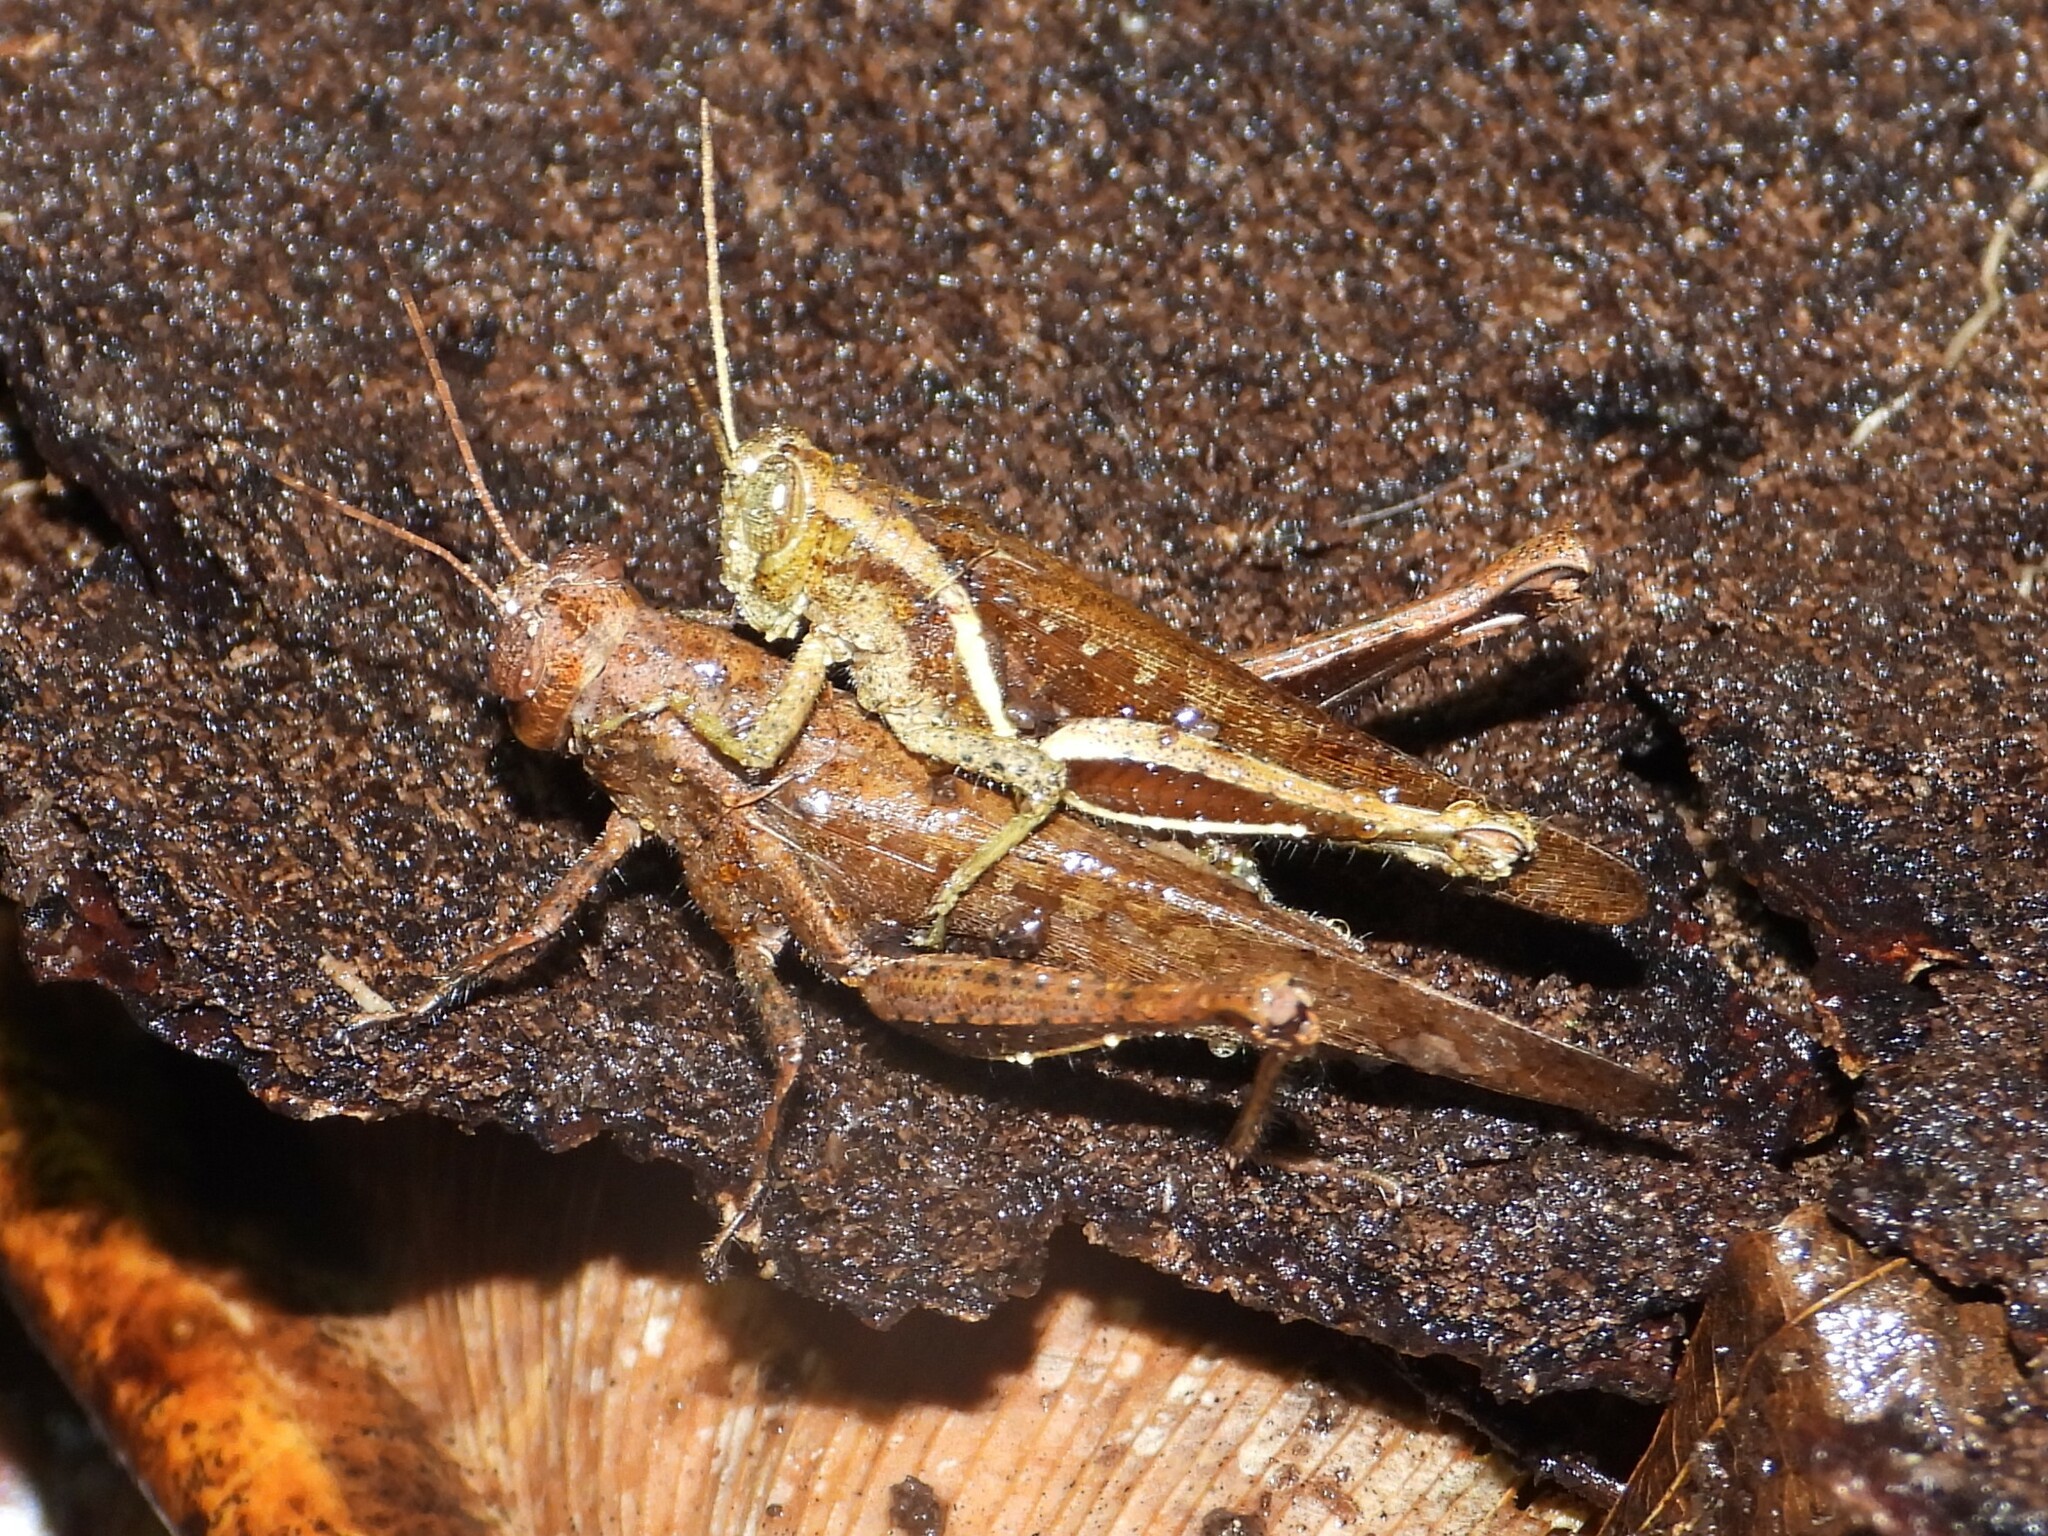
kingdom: Animalia
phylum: Arthropoda
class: Insecta
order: Orthoptera
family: Acrididae
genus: Abracris
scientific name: Abracris flavolineata
